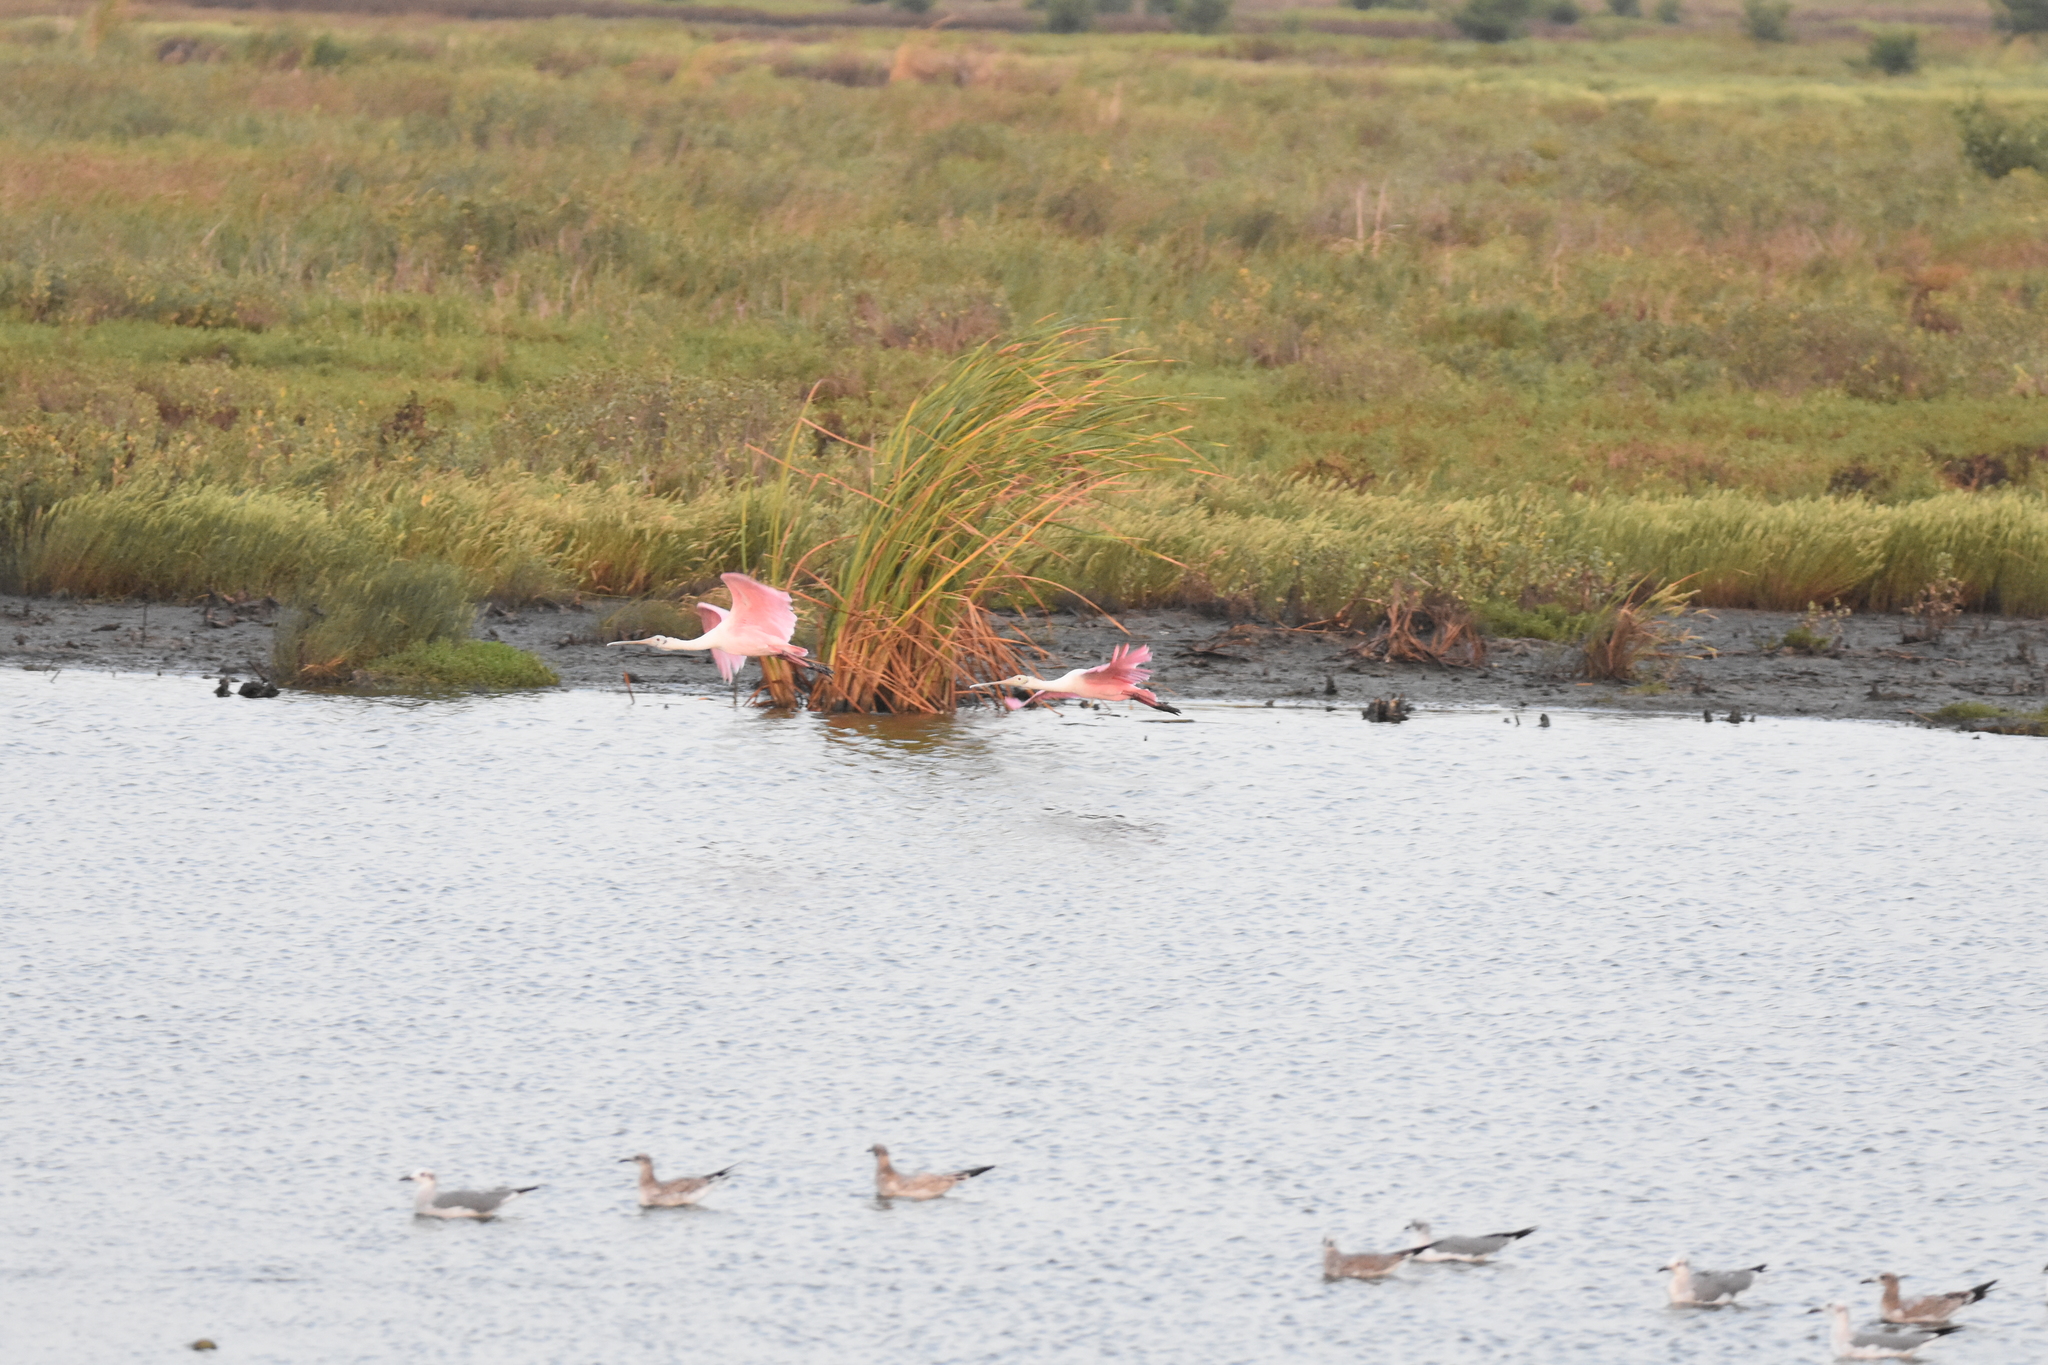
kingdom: Animalia
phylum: Chordata
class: Aves
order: Pelecaniformes
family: Threskiornithidae
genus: Platalea
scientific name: Platalea ajaja
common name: Roseate spoonbill
